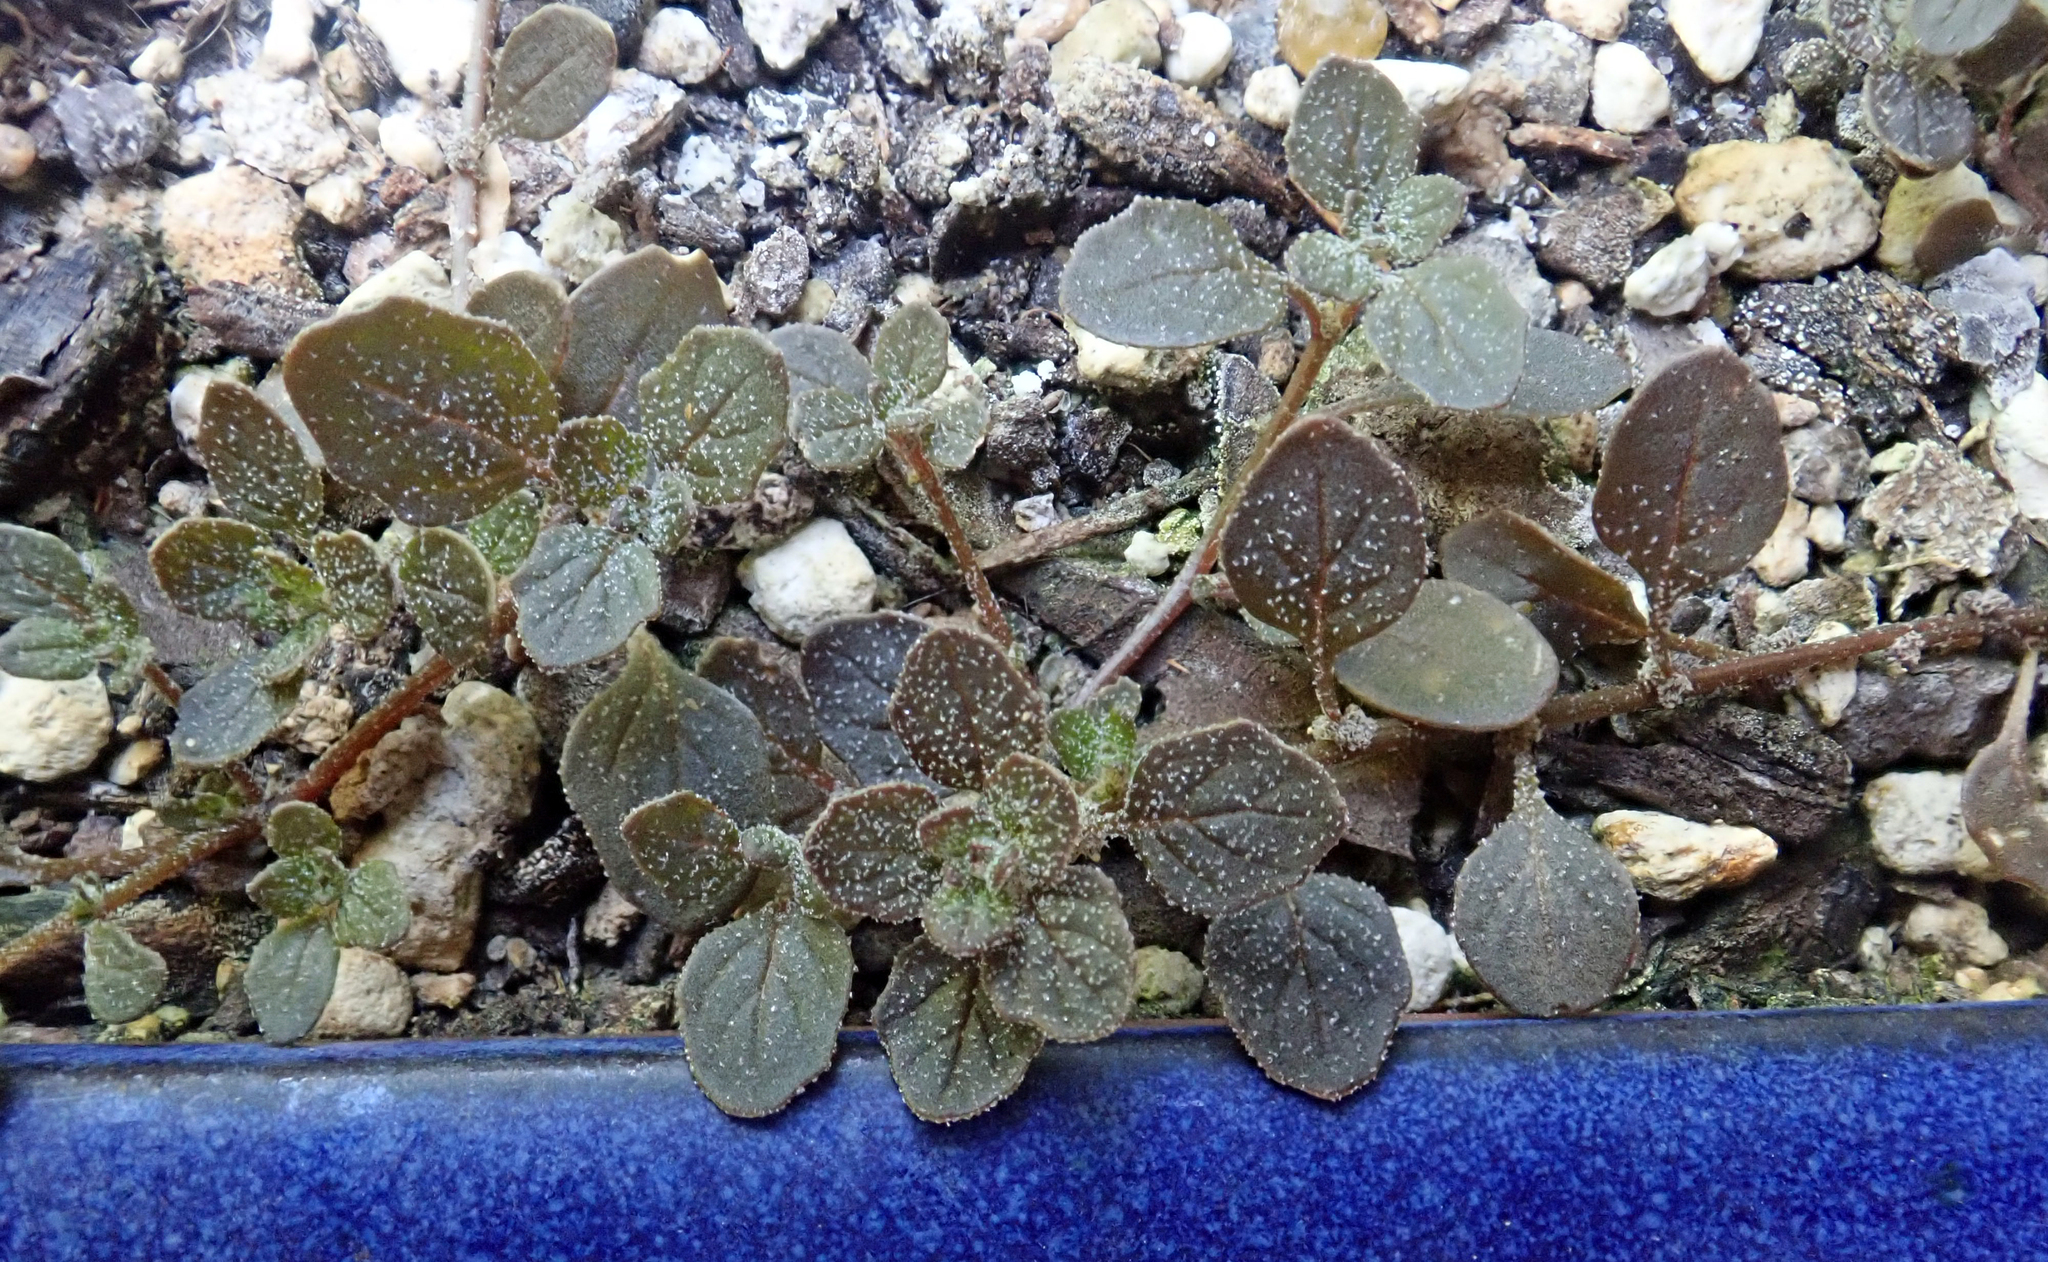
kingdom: Plantae
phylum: Tracheophyta
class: Magnoliopsida
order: Caryophyllales
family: Amaranthaceae
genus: Dysphania
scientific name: Dysphania pusilla
